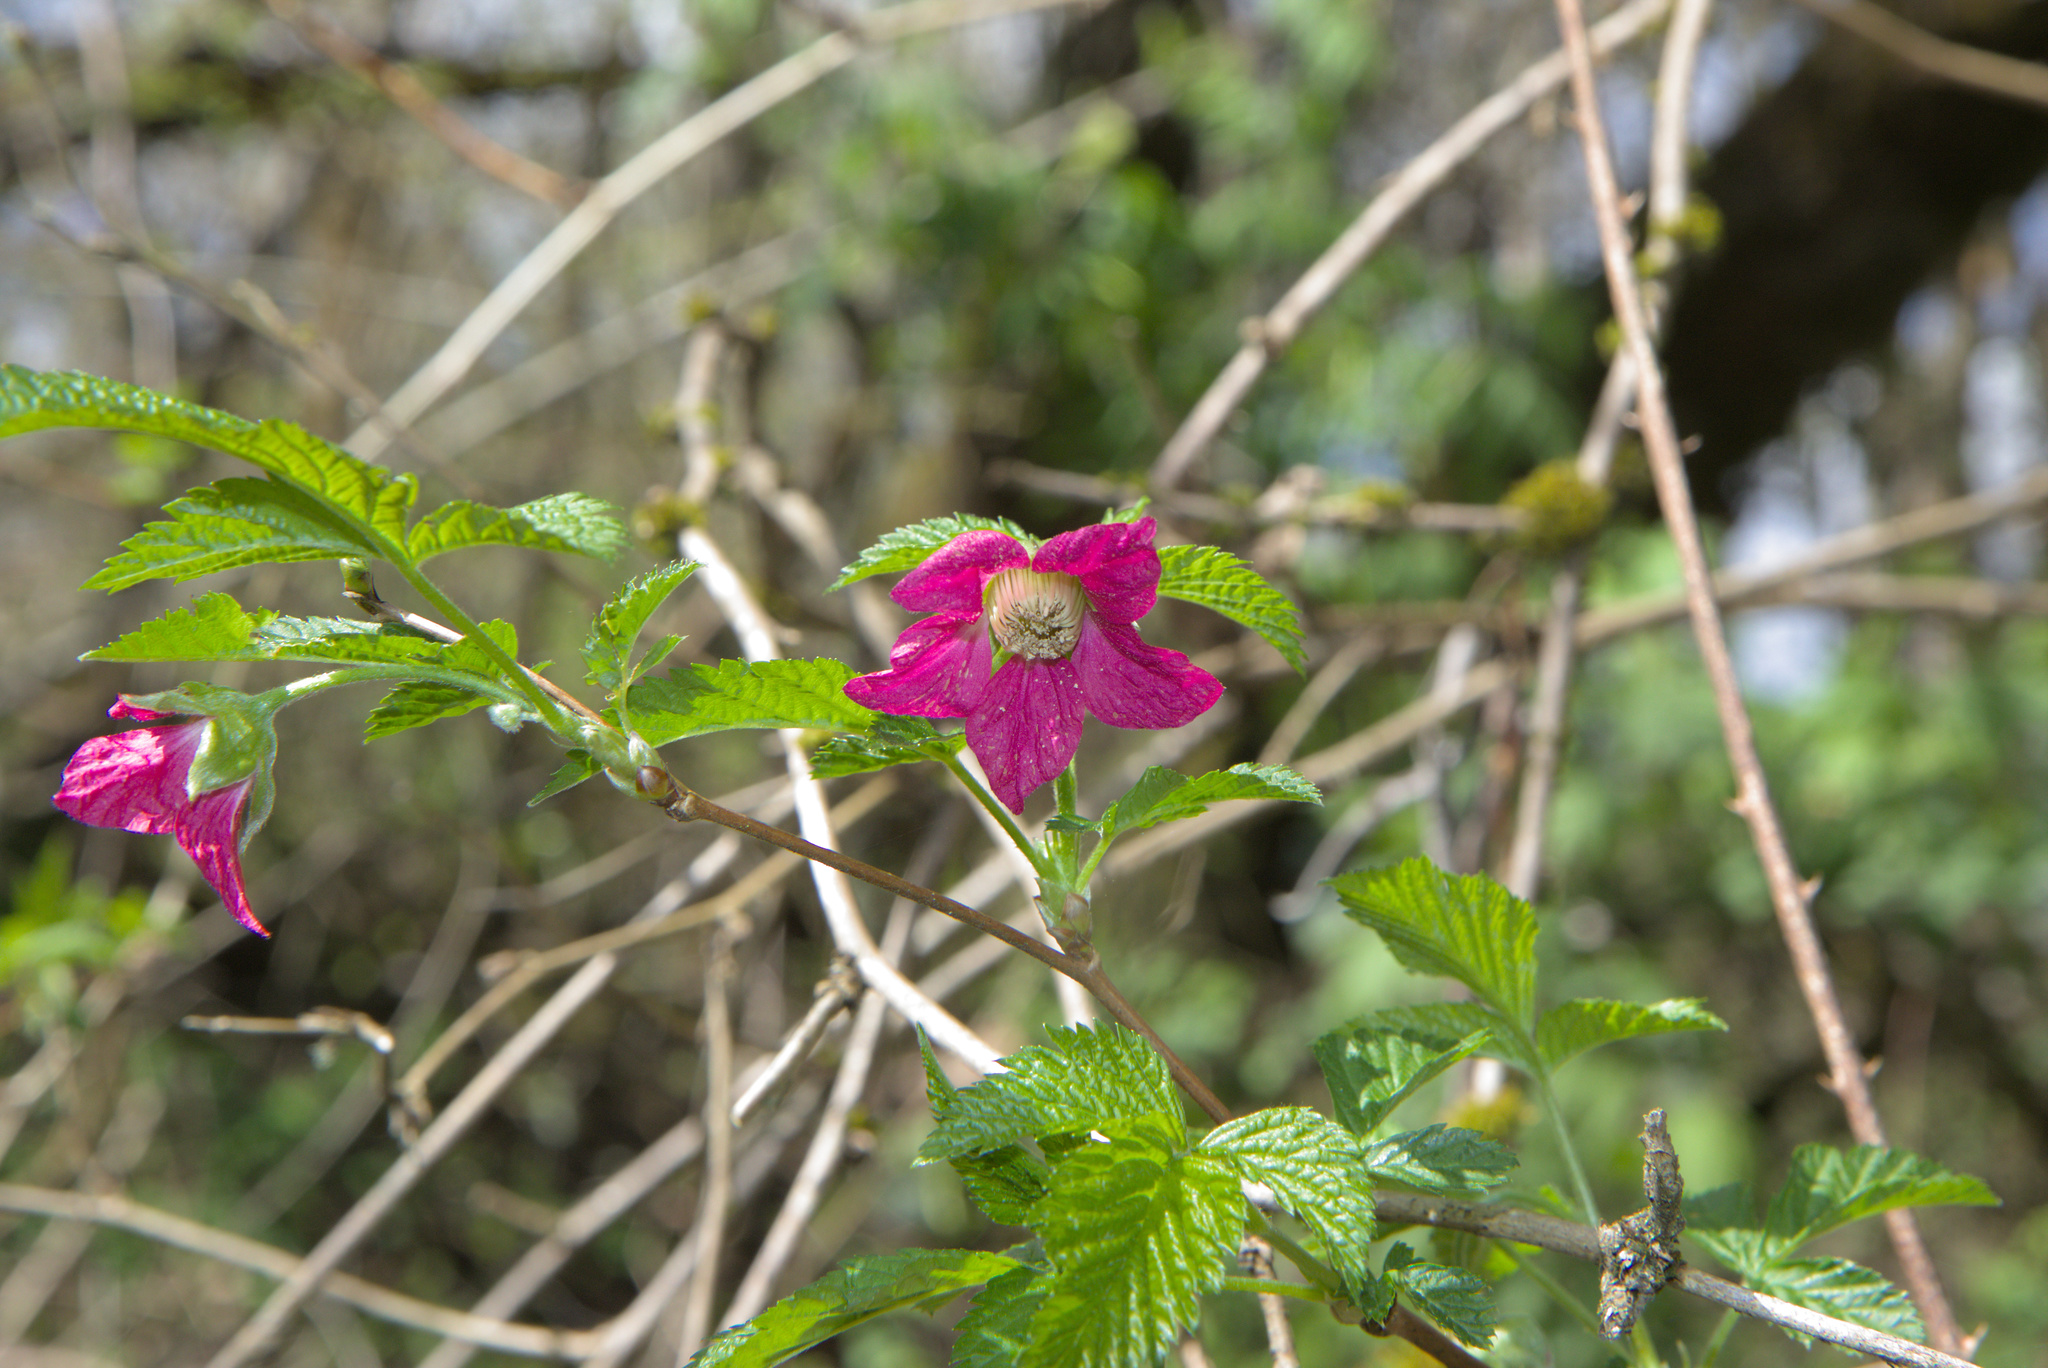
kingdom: Plantae
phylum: Tracheophyta
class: Magnoliopsida
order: Rosales
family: Rosaceae
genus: Rubus
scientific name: Rubus spectabilis
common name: Salmonberry
